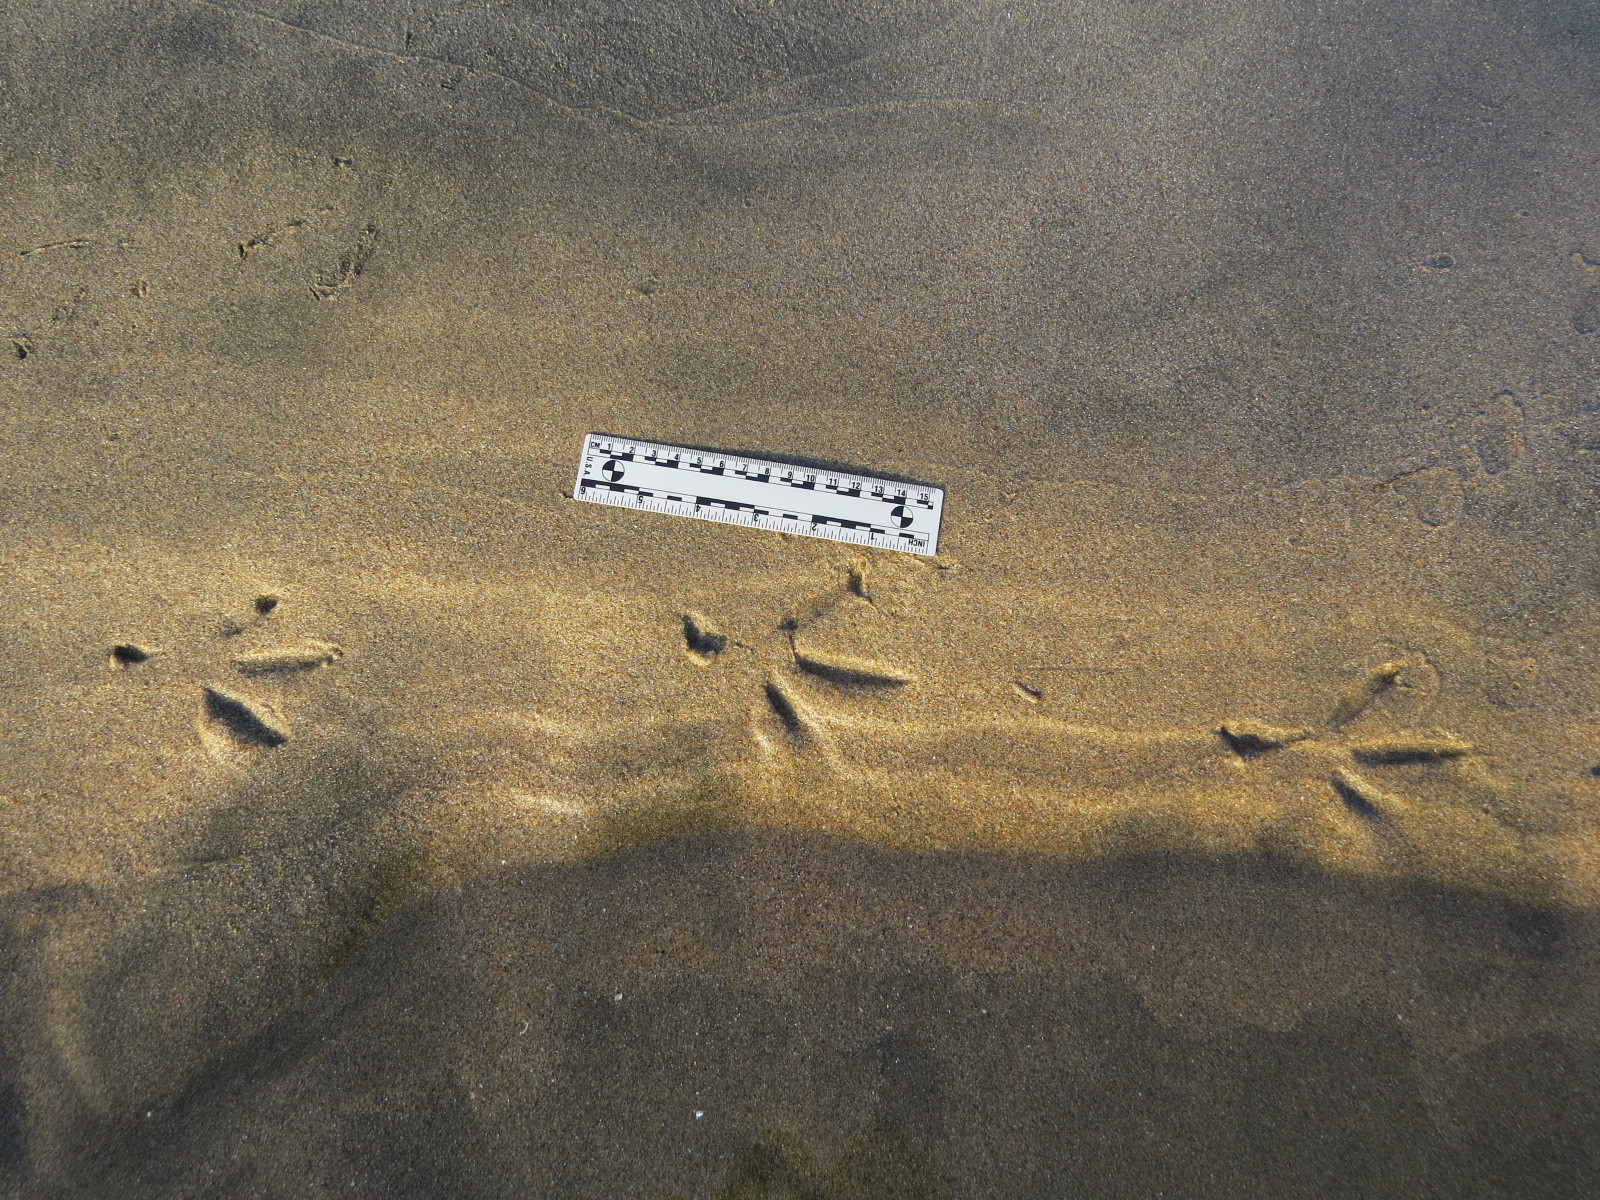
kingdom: Animalia
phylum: Chordata
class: Aves
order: Pelecaniformes
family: Ardeidae
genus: Egretta
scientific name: Egretta thula
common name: Snowy egret
